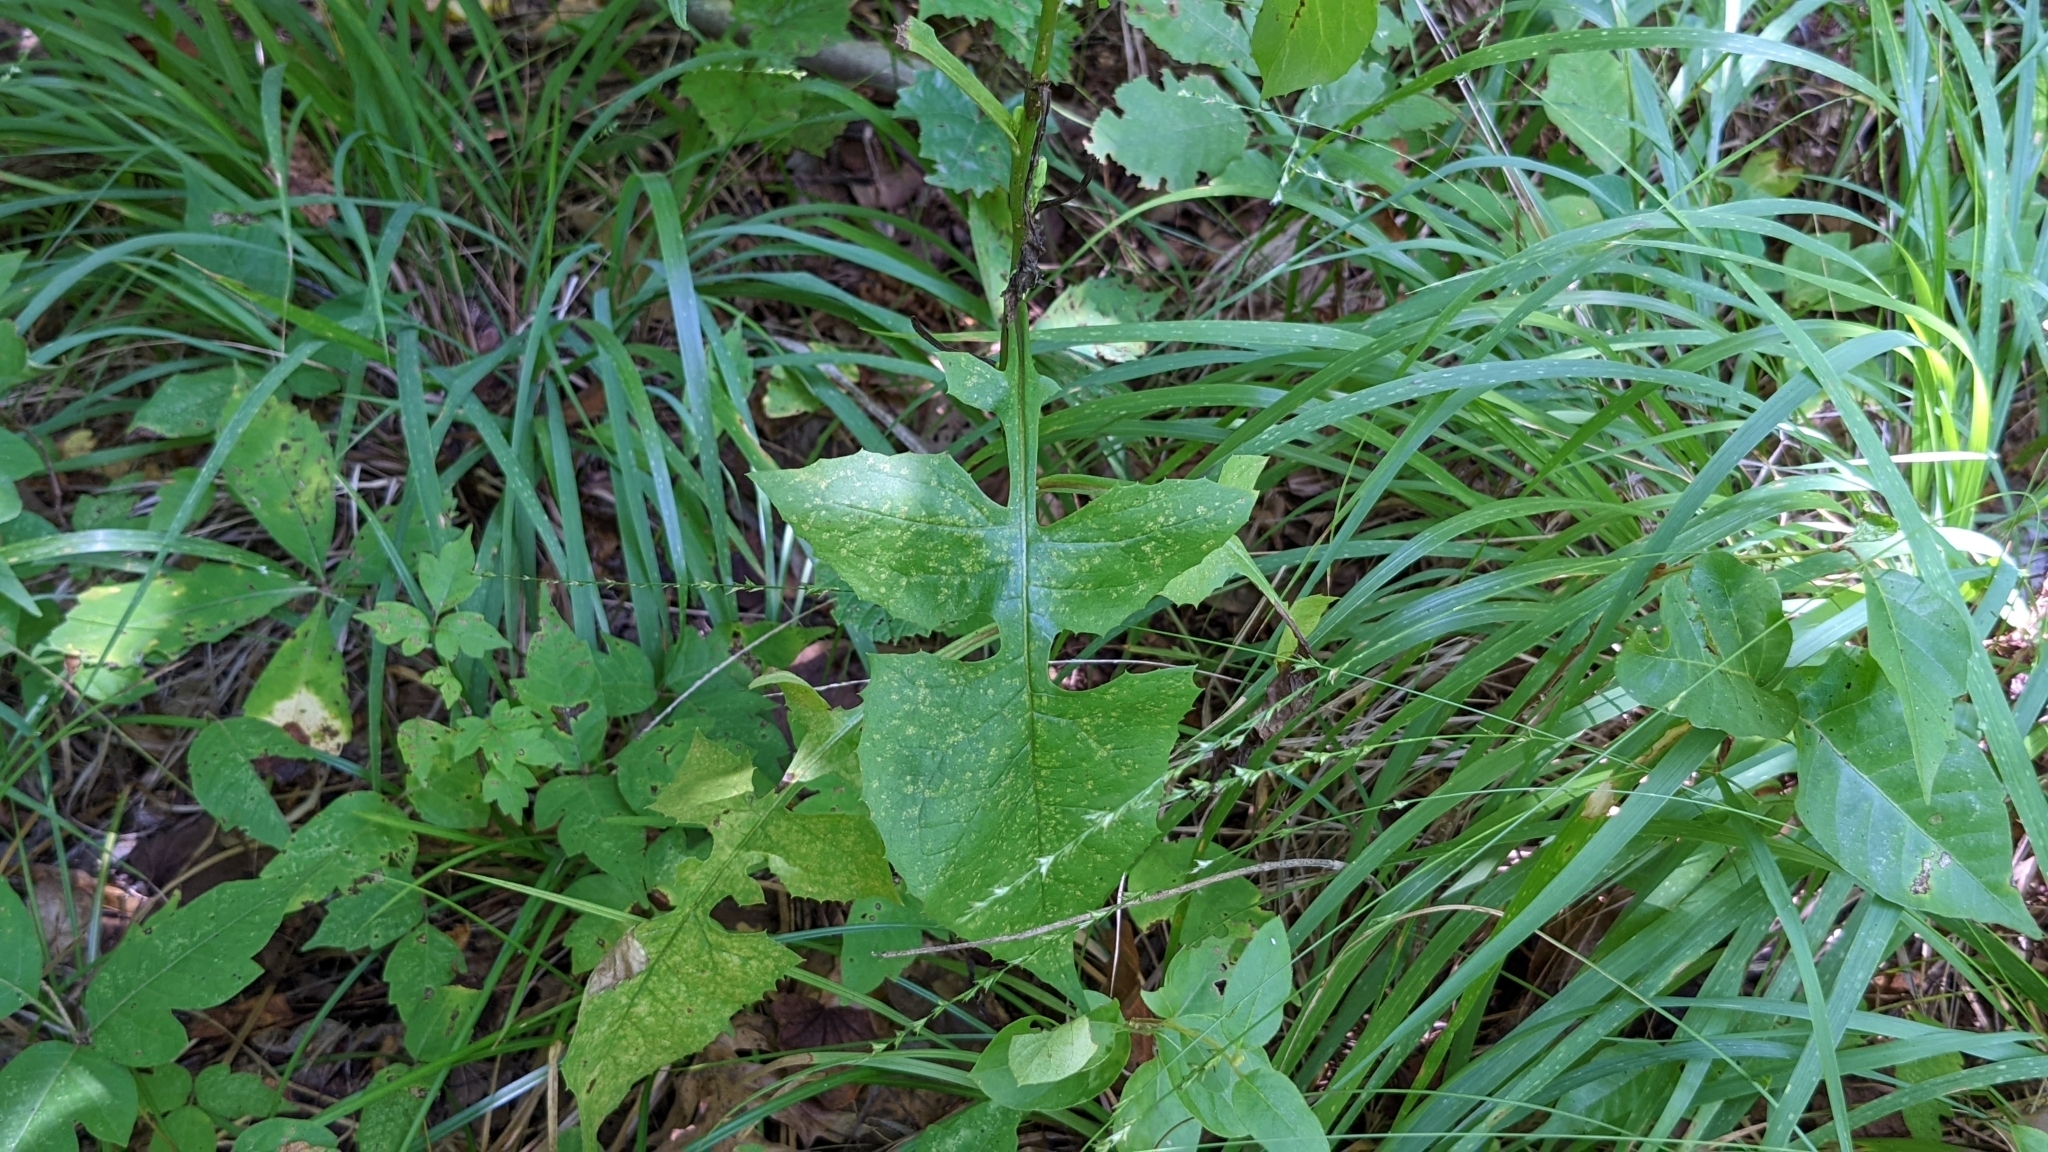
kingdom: Plantae
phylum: Tracheophyta
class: Magnoliopsida
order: Asterales
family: Asteraceae
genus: Lactuca
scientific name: Lactuca floridana
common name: Woodland lettuce
